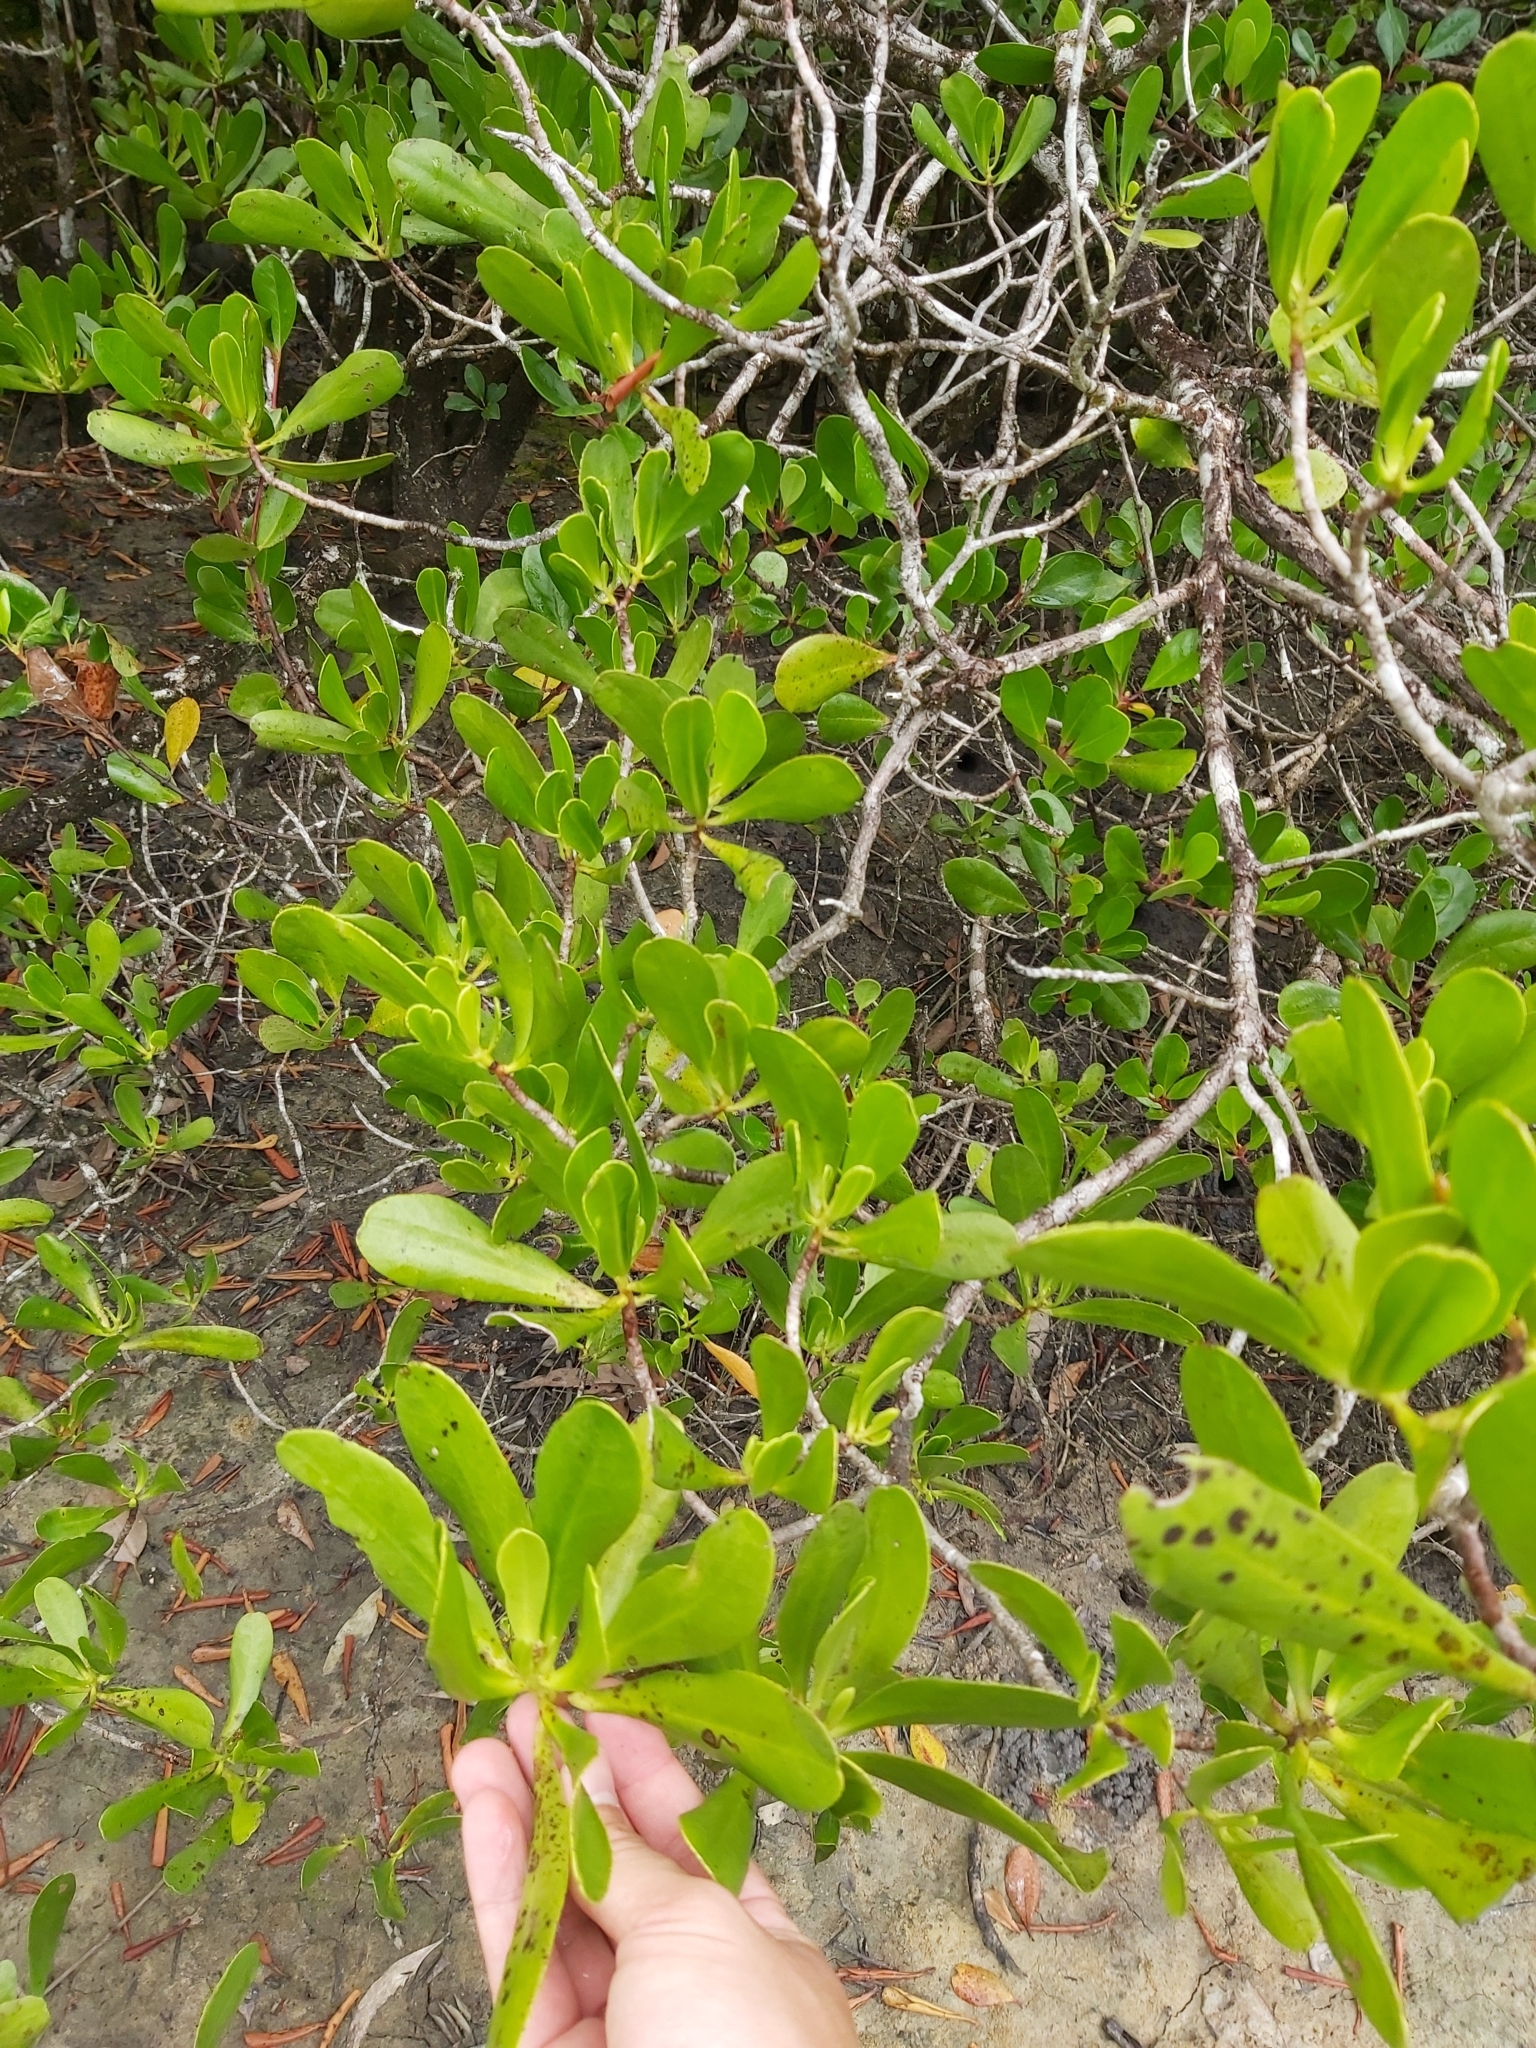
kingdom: Plantae
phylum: Tracheophyta
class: Magnoliopsida
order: Myrtales
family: Combretaceae
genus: Lumnitzera
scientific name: Lumnitzera littorea
